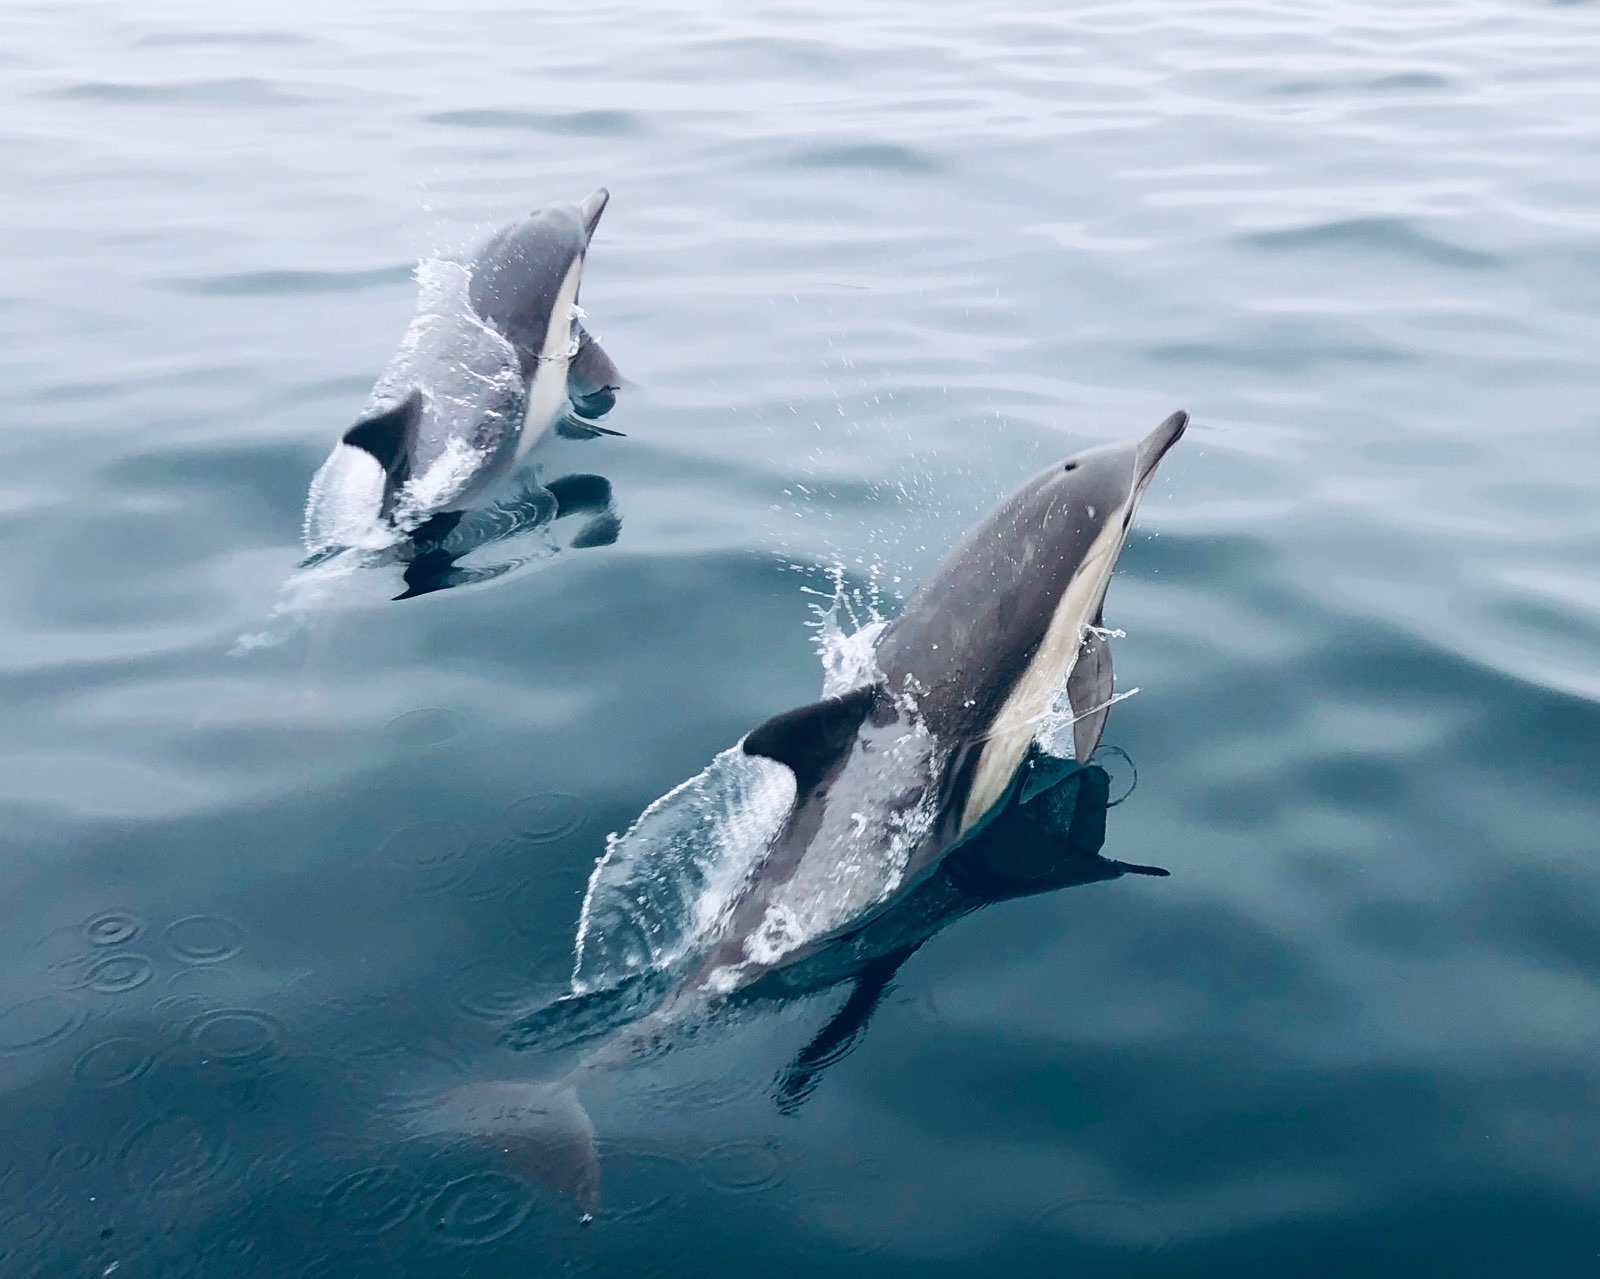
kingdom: Animalia
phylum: Chordata
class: Mammalia
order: Cetacea
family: Delphinidae
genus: Delphinus
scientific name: Delphinus delphis
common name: Common dolphin
